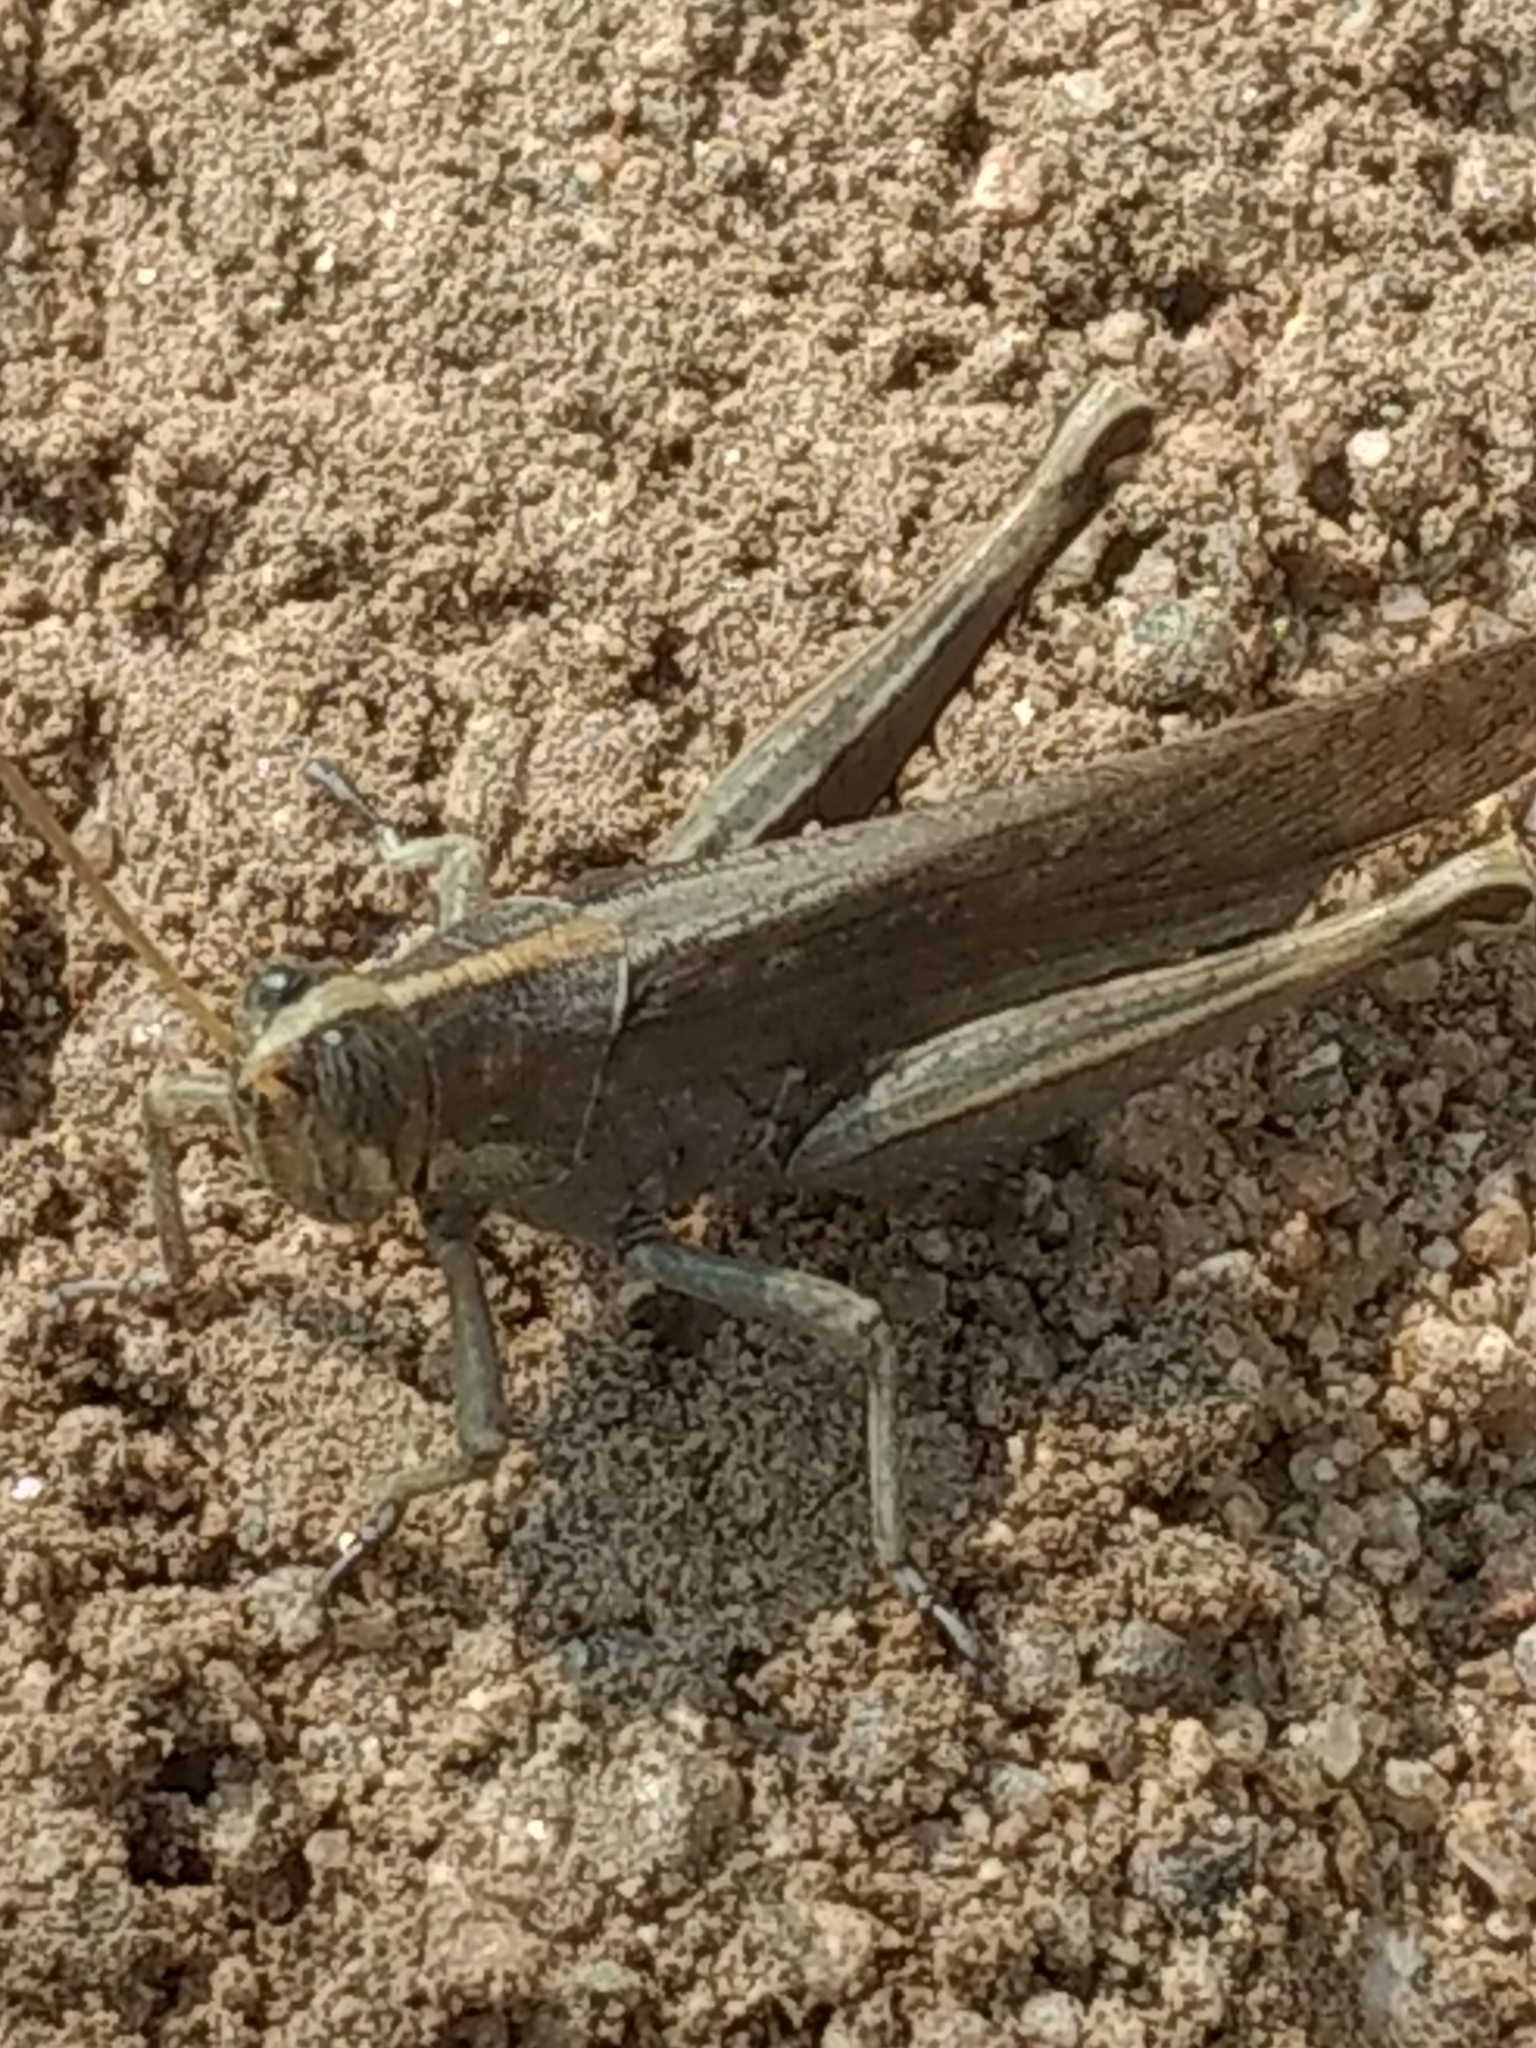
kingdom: Animalia
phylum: Arthropoda
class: Insecta
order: Orthoptera
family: Acrididae
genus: Schistocerca
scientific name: Schistocerca nitens
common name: Vagrant grasshopper
